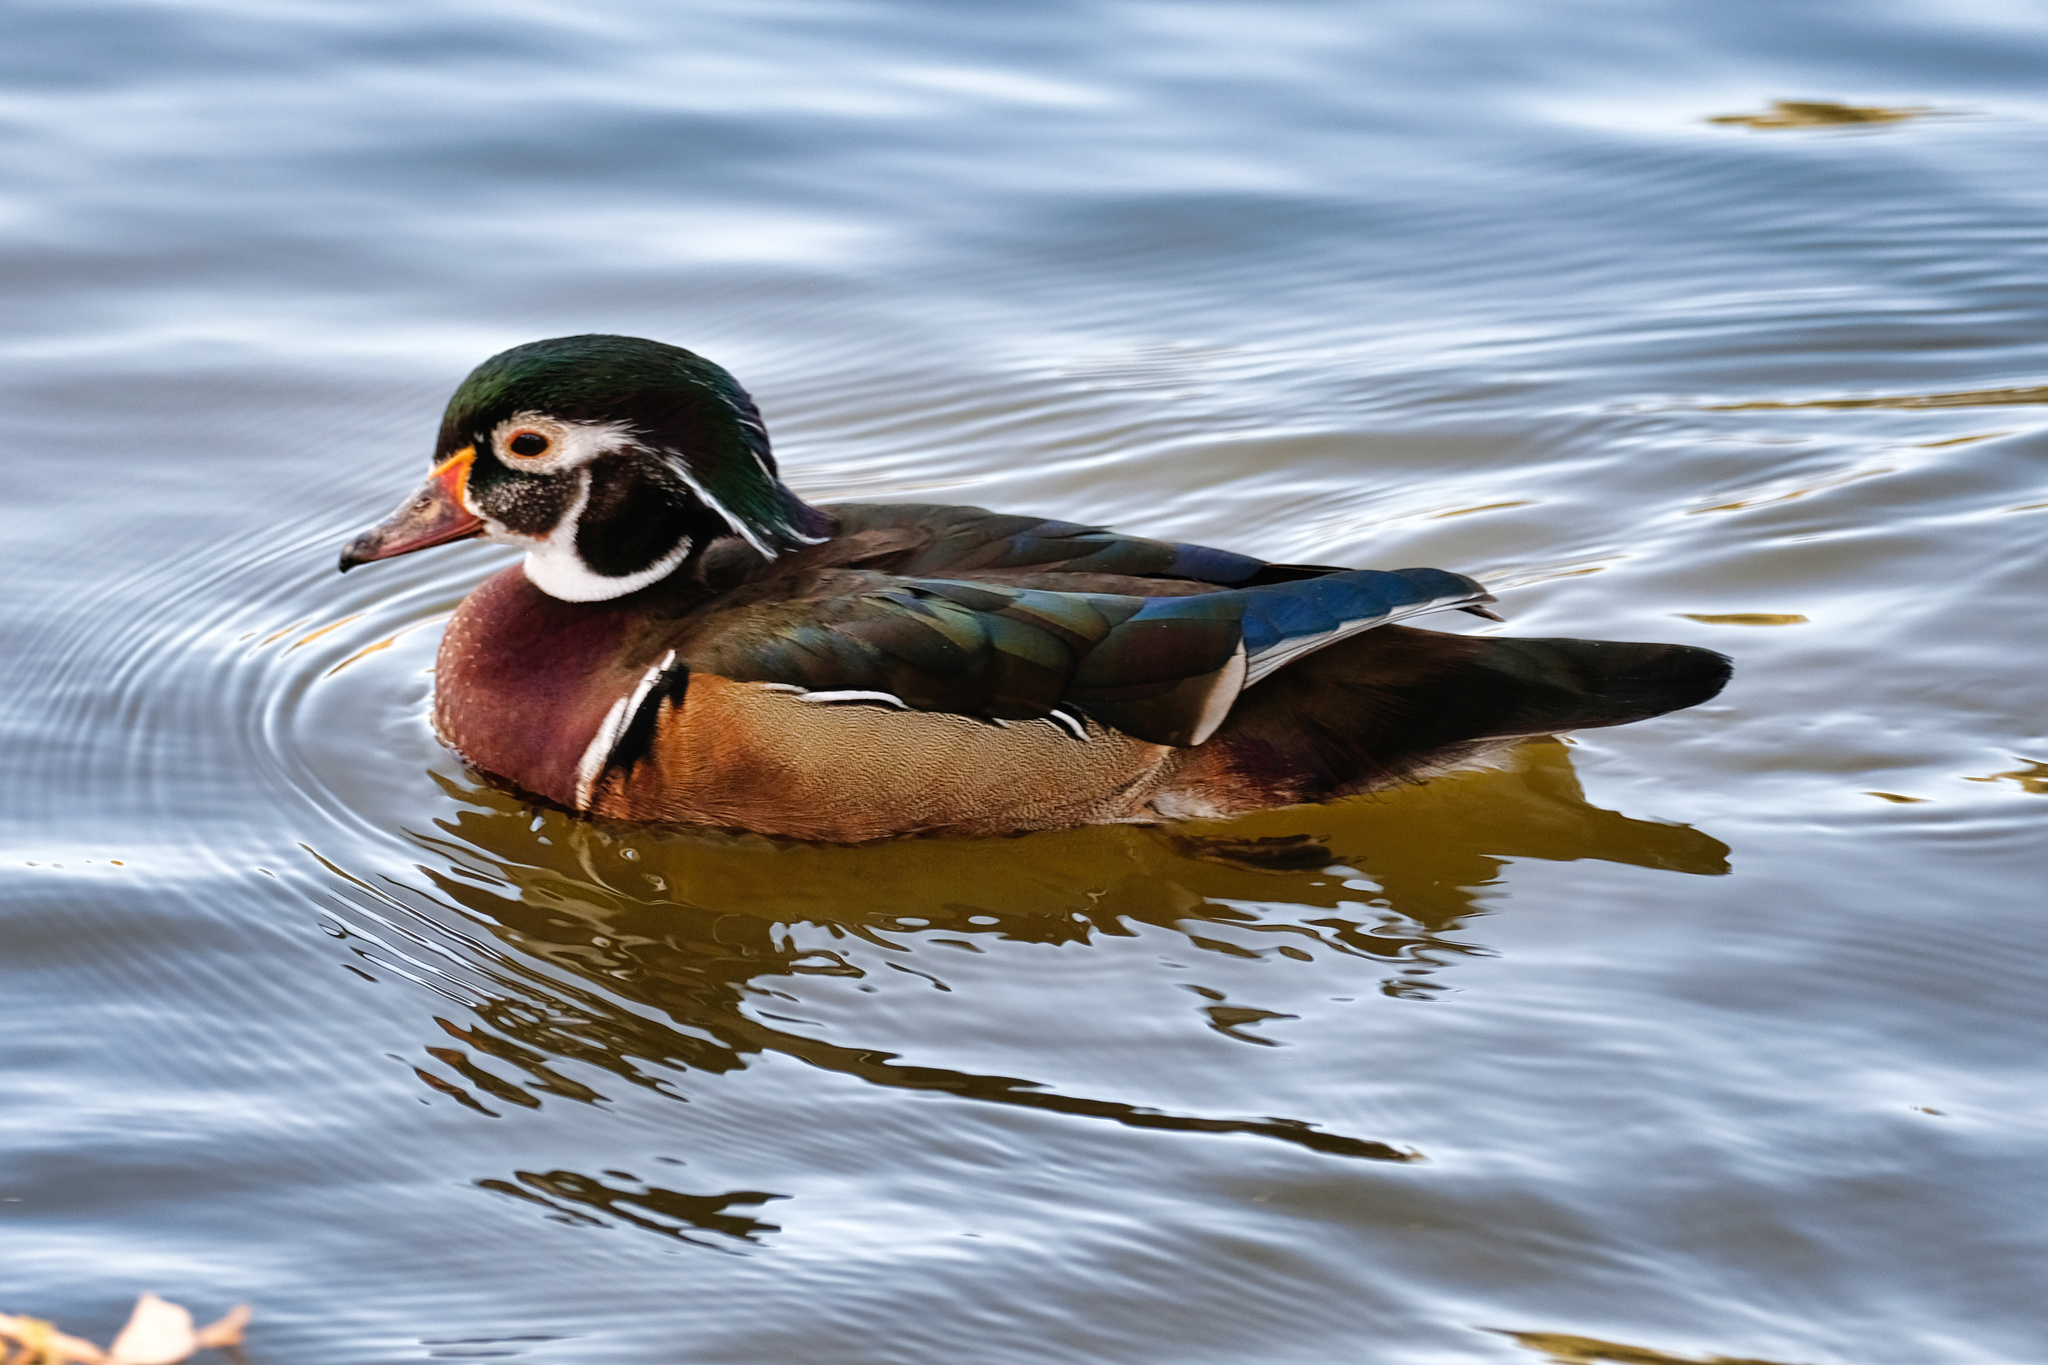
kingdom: Animalia
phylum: Chordata
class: Aves
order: Anseriformes
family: Anatidae
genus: Aix
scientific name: Aix sponsa
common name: Wood duck
